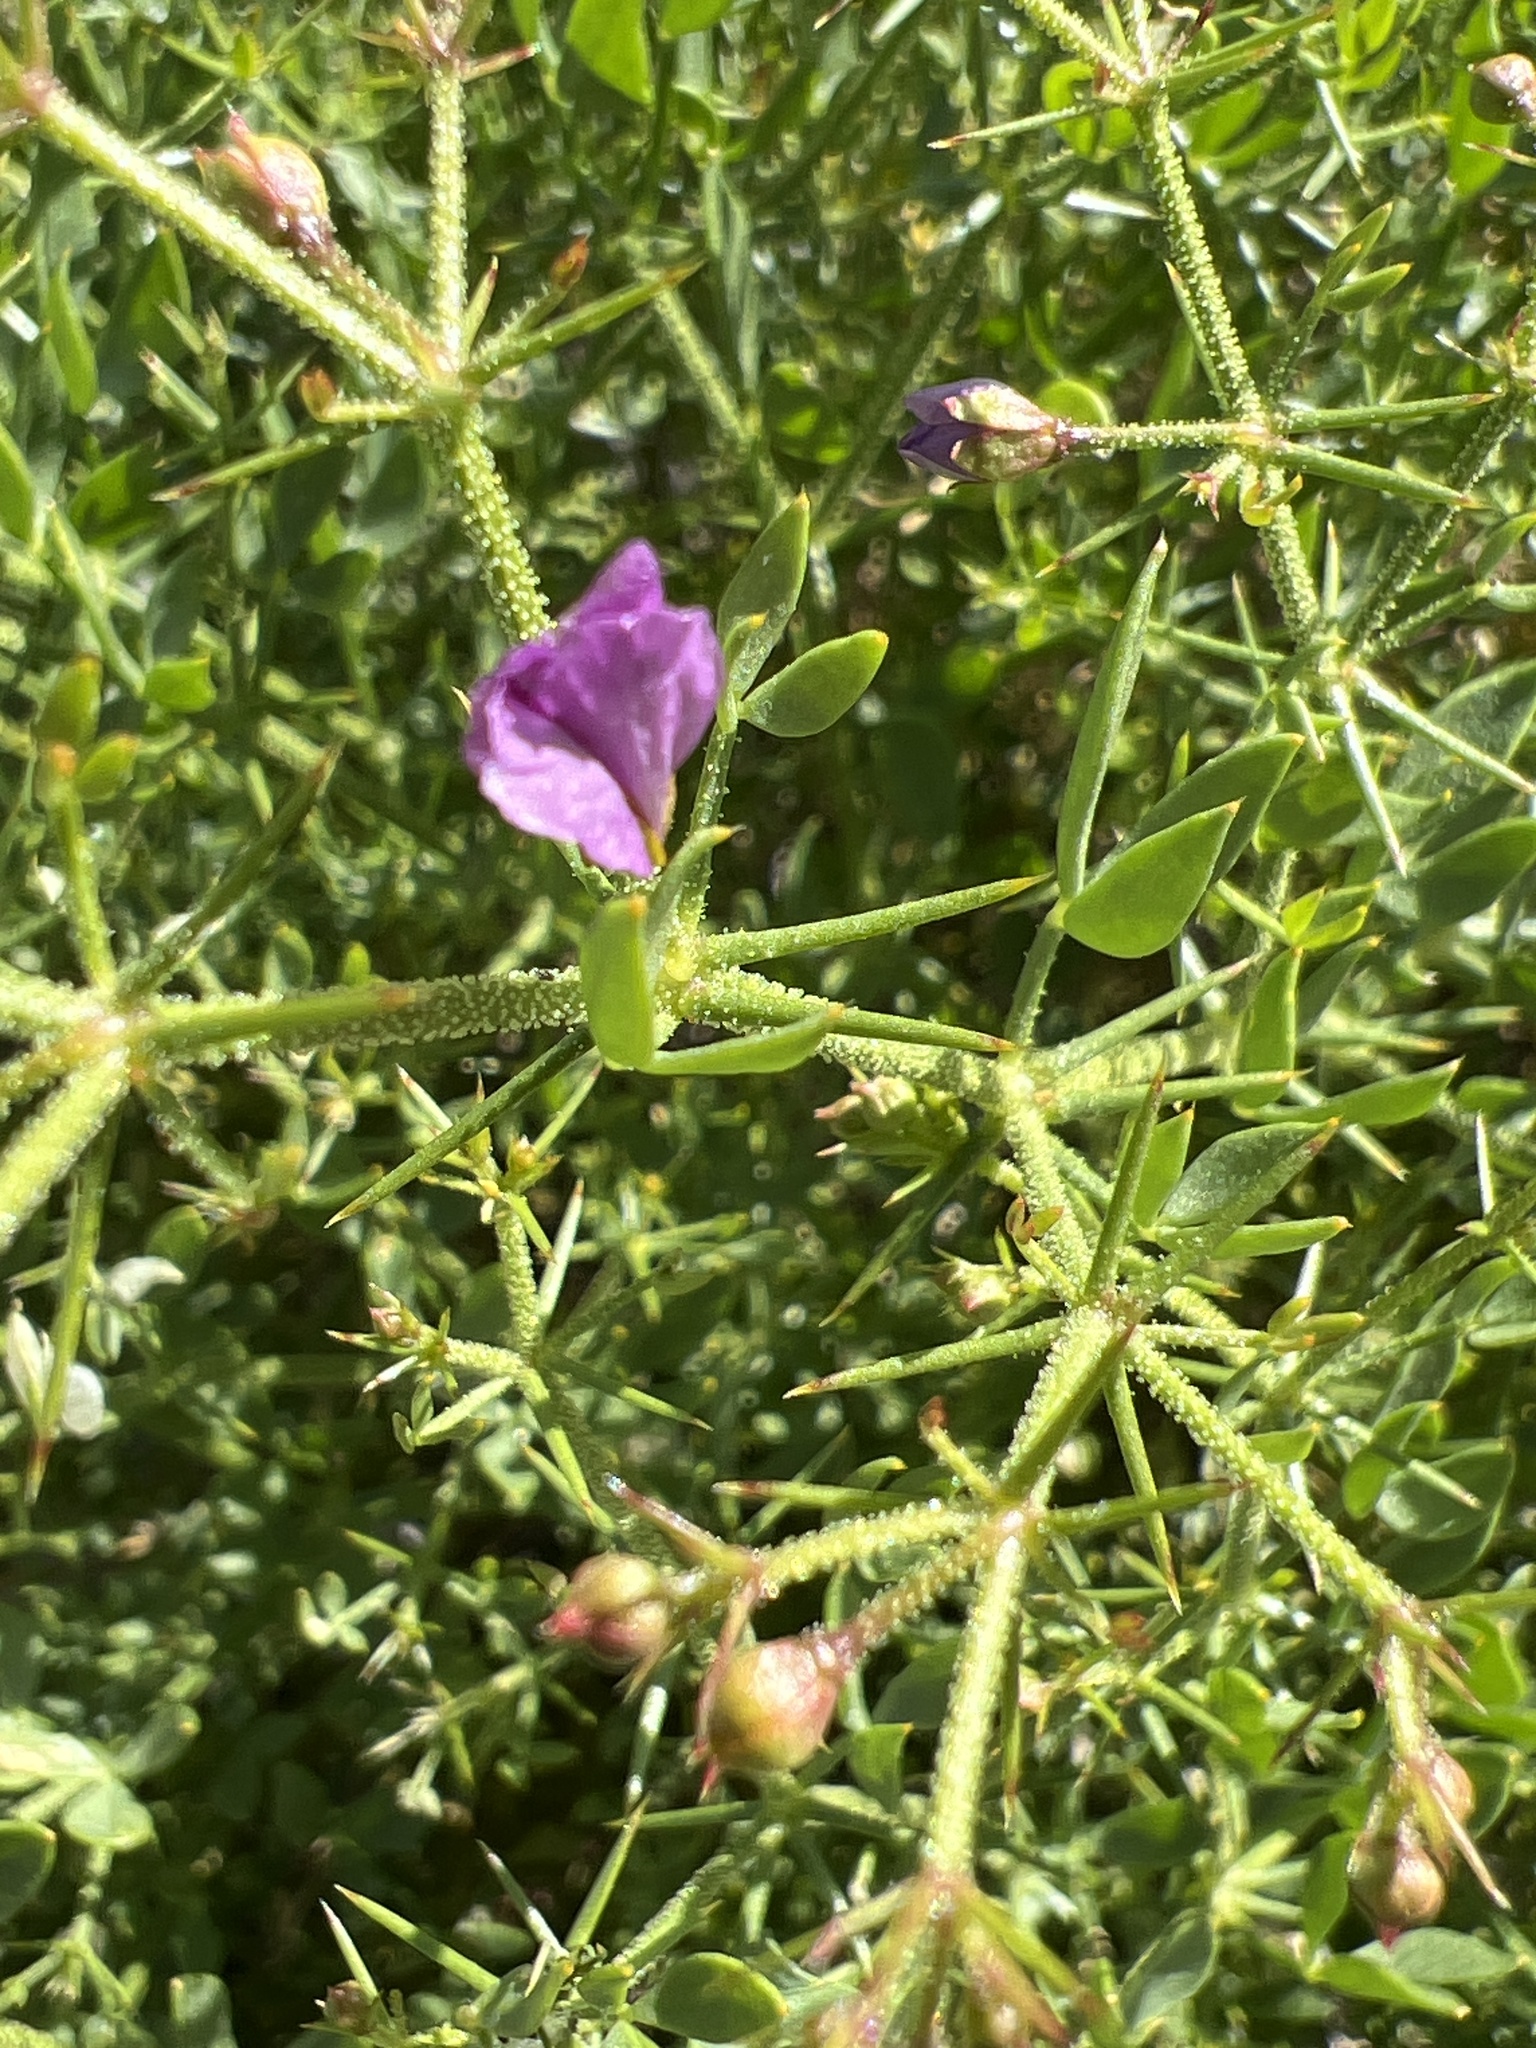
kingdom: Plantae
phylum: Tracheophyta
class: Magnoliopsida
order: Zygophyllales
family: Zygophyllaceae
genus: Fagonia
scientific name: Fagonia pachyacantha
